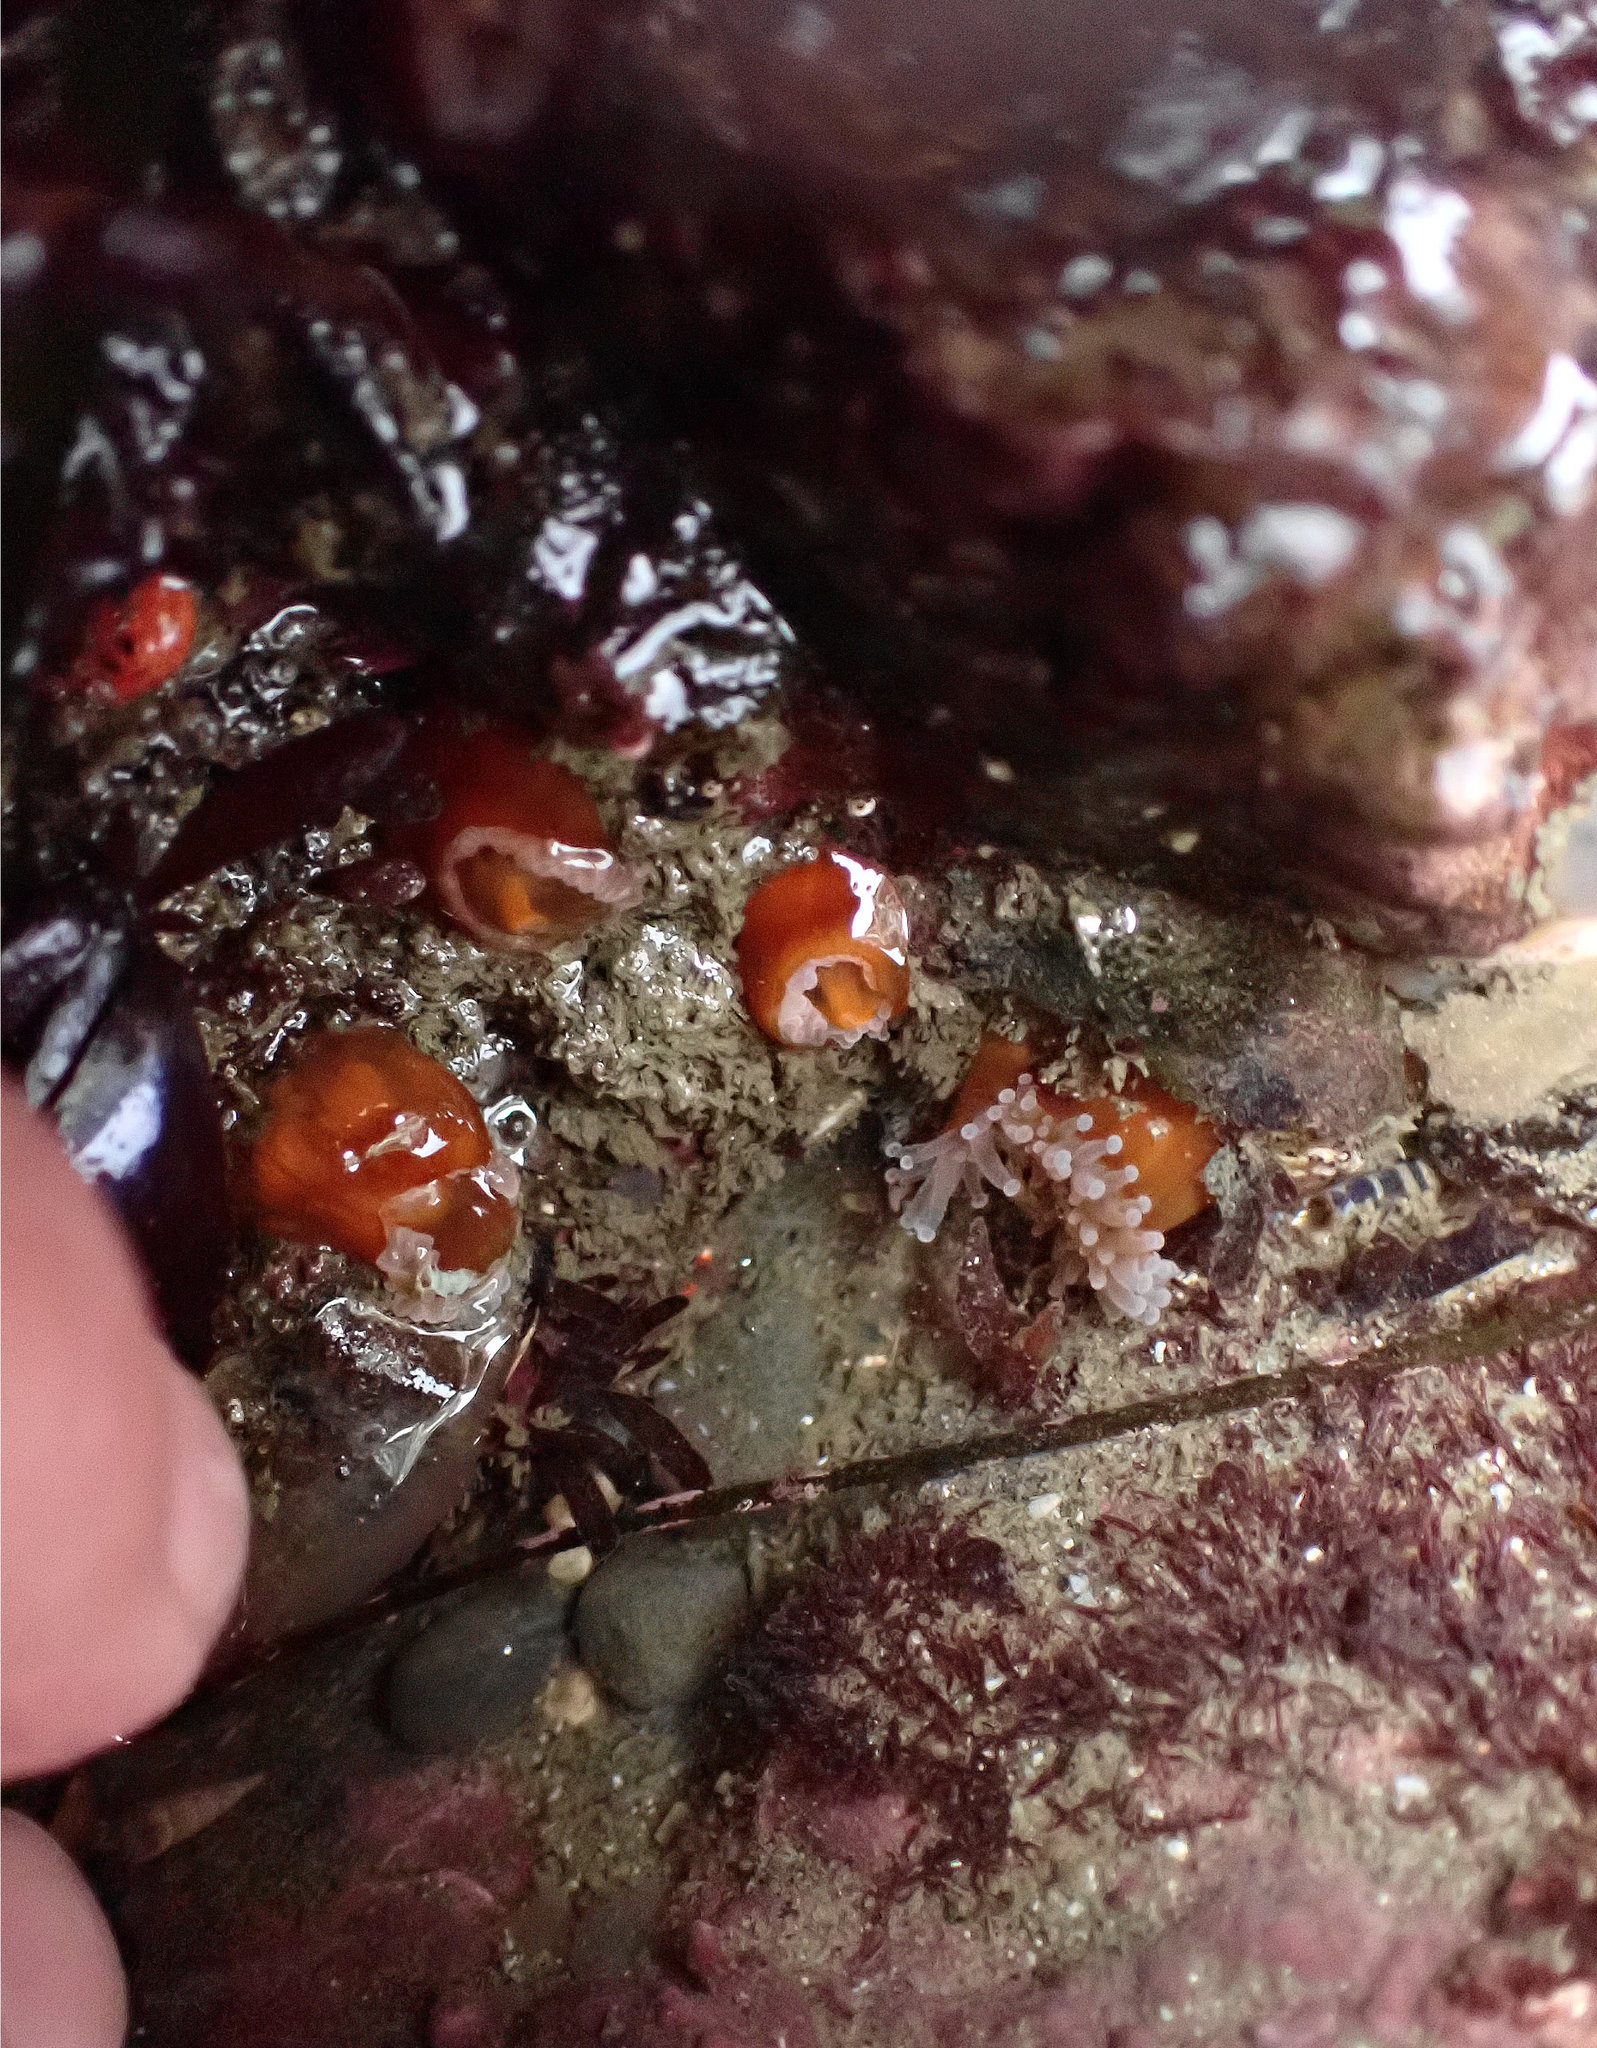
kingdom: Animalia
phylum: Cnidaria
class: Anthozoa
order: Corallimorpharia
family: Corallimorphidae
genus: Corynactis
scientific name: Corynactis californica
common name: Strawberry corallimorpharian
